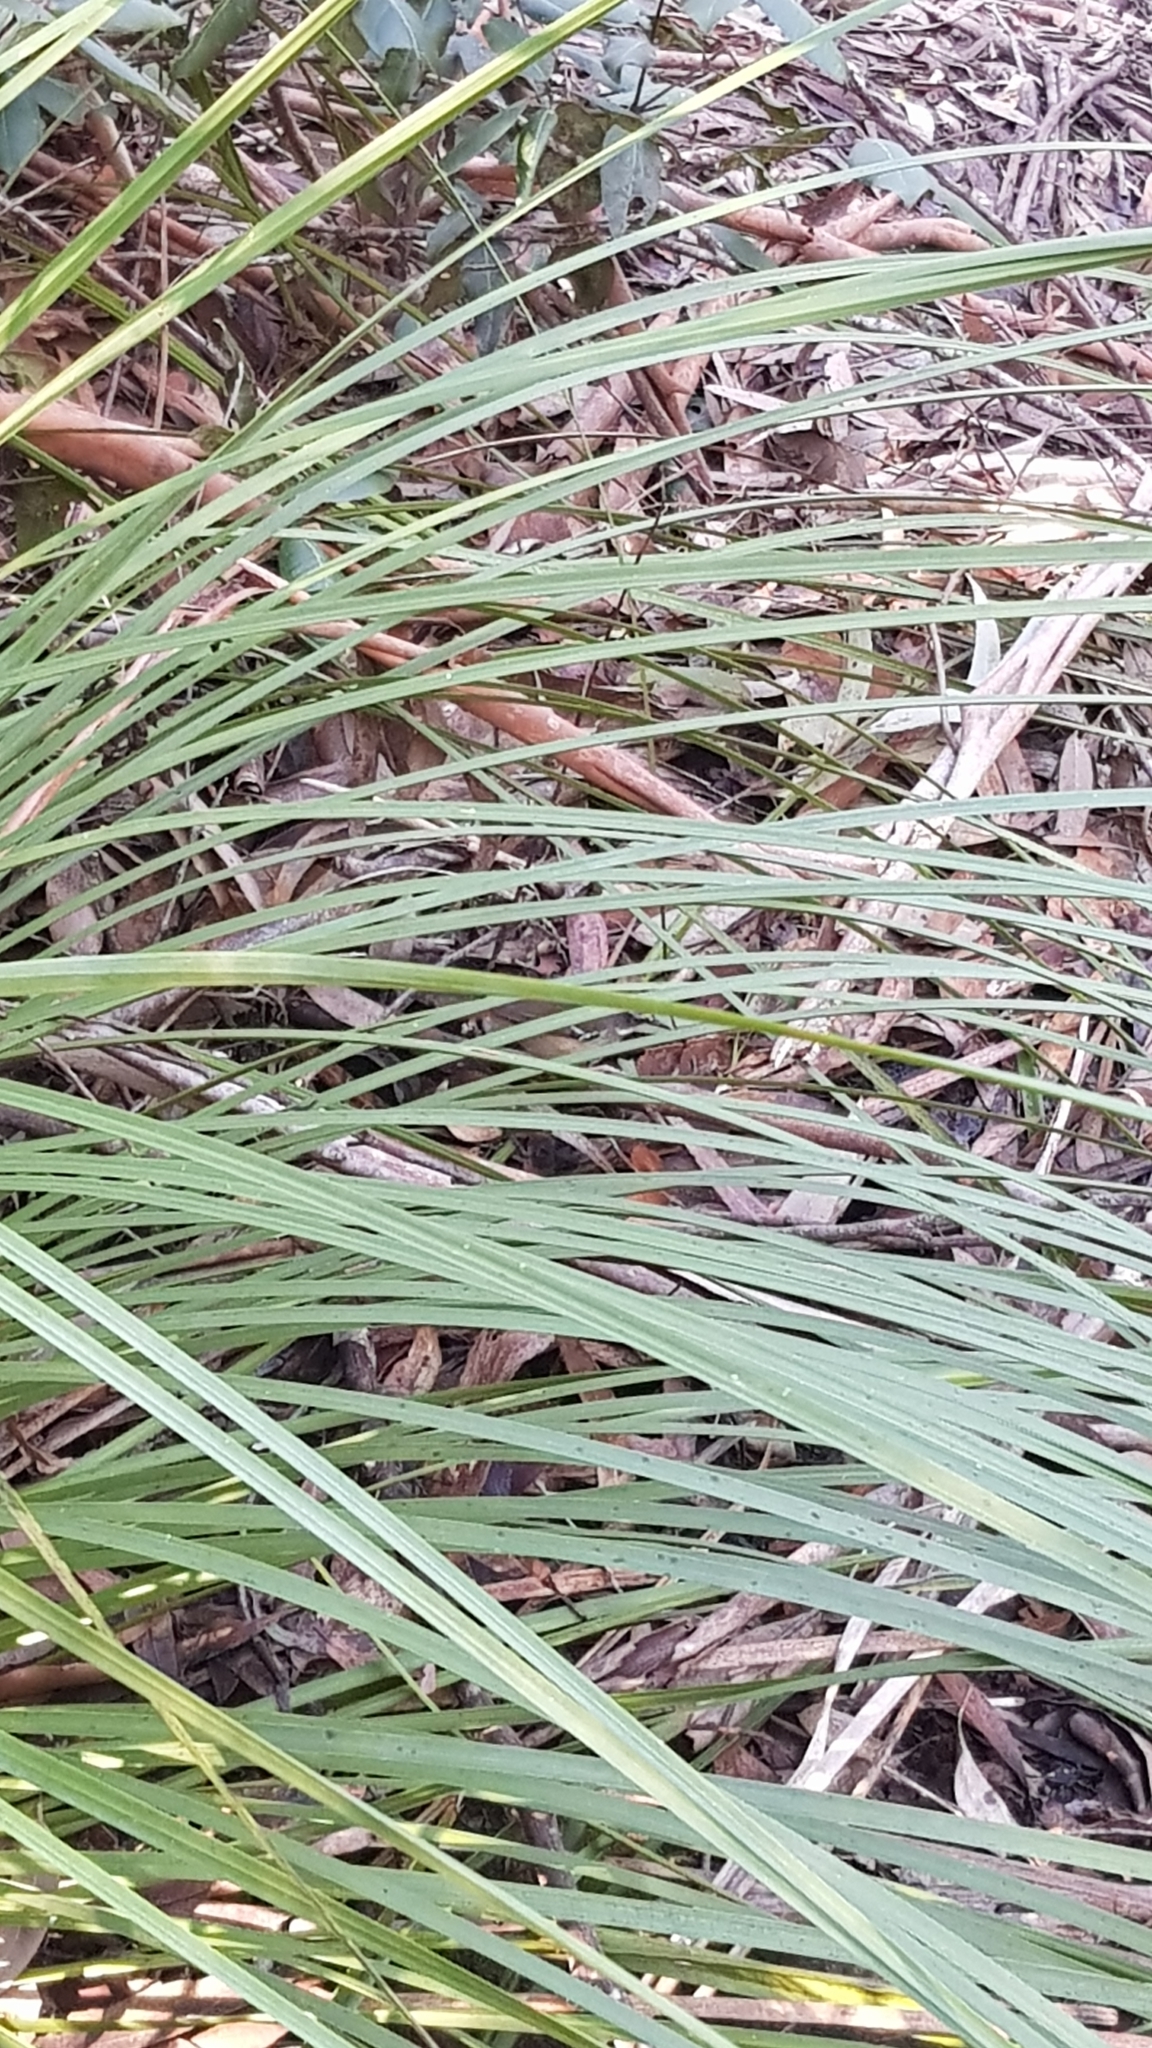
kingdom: Animalia
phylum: Chordata
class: Aves
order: Passeriformes
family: Acanthizidae
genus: Sericornis
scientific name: Sericornis frontalis
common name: White-browed scrubwren
